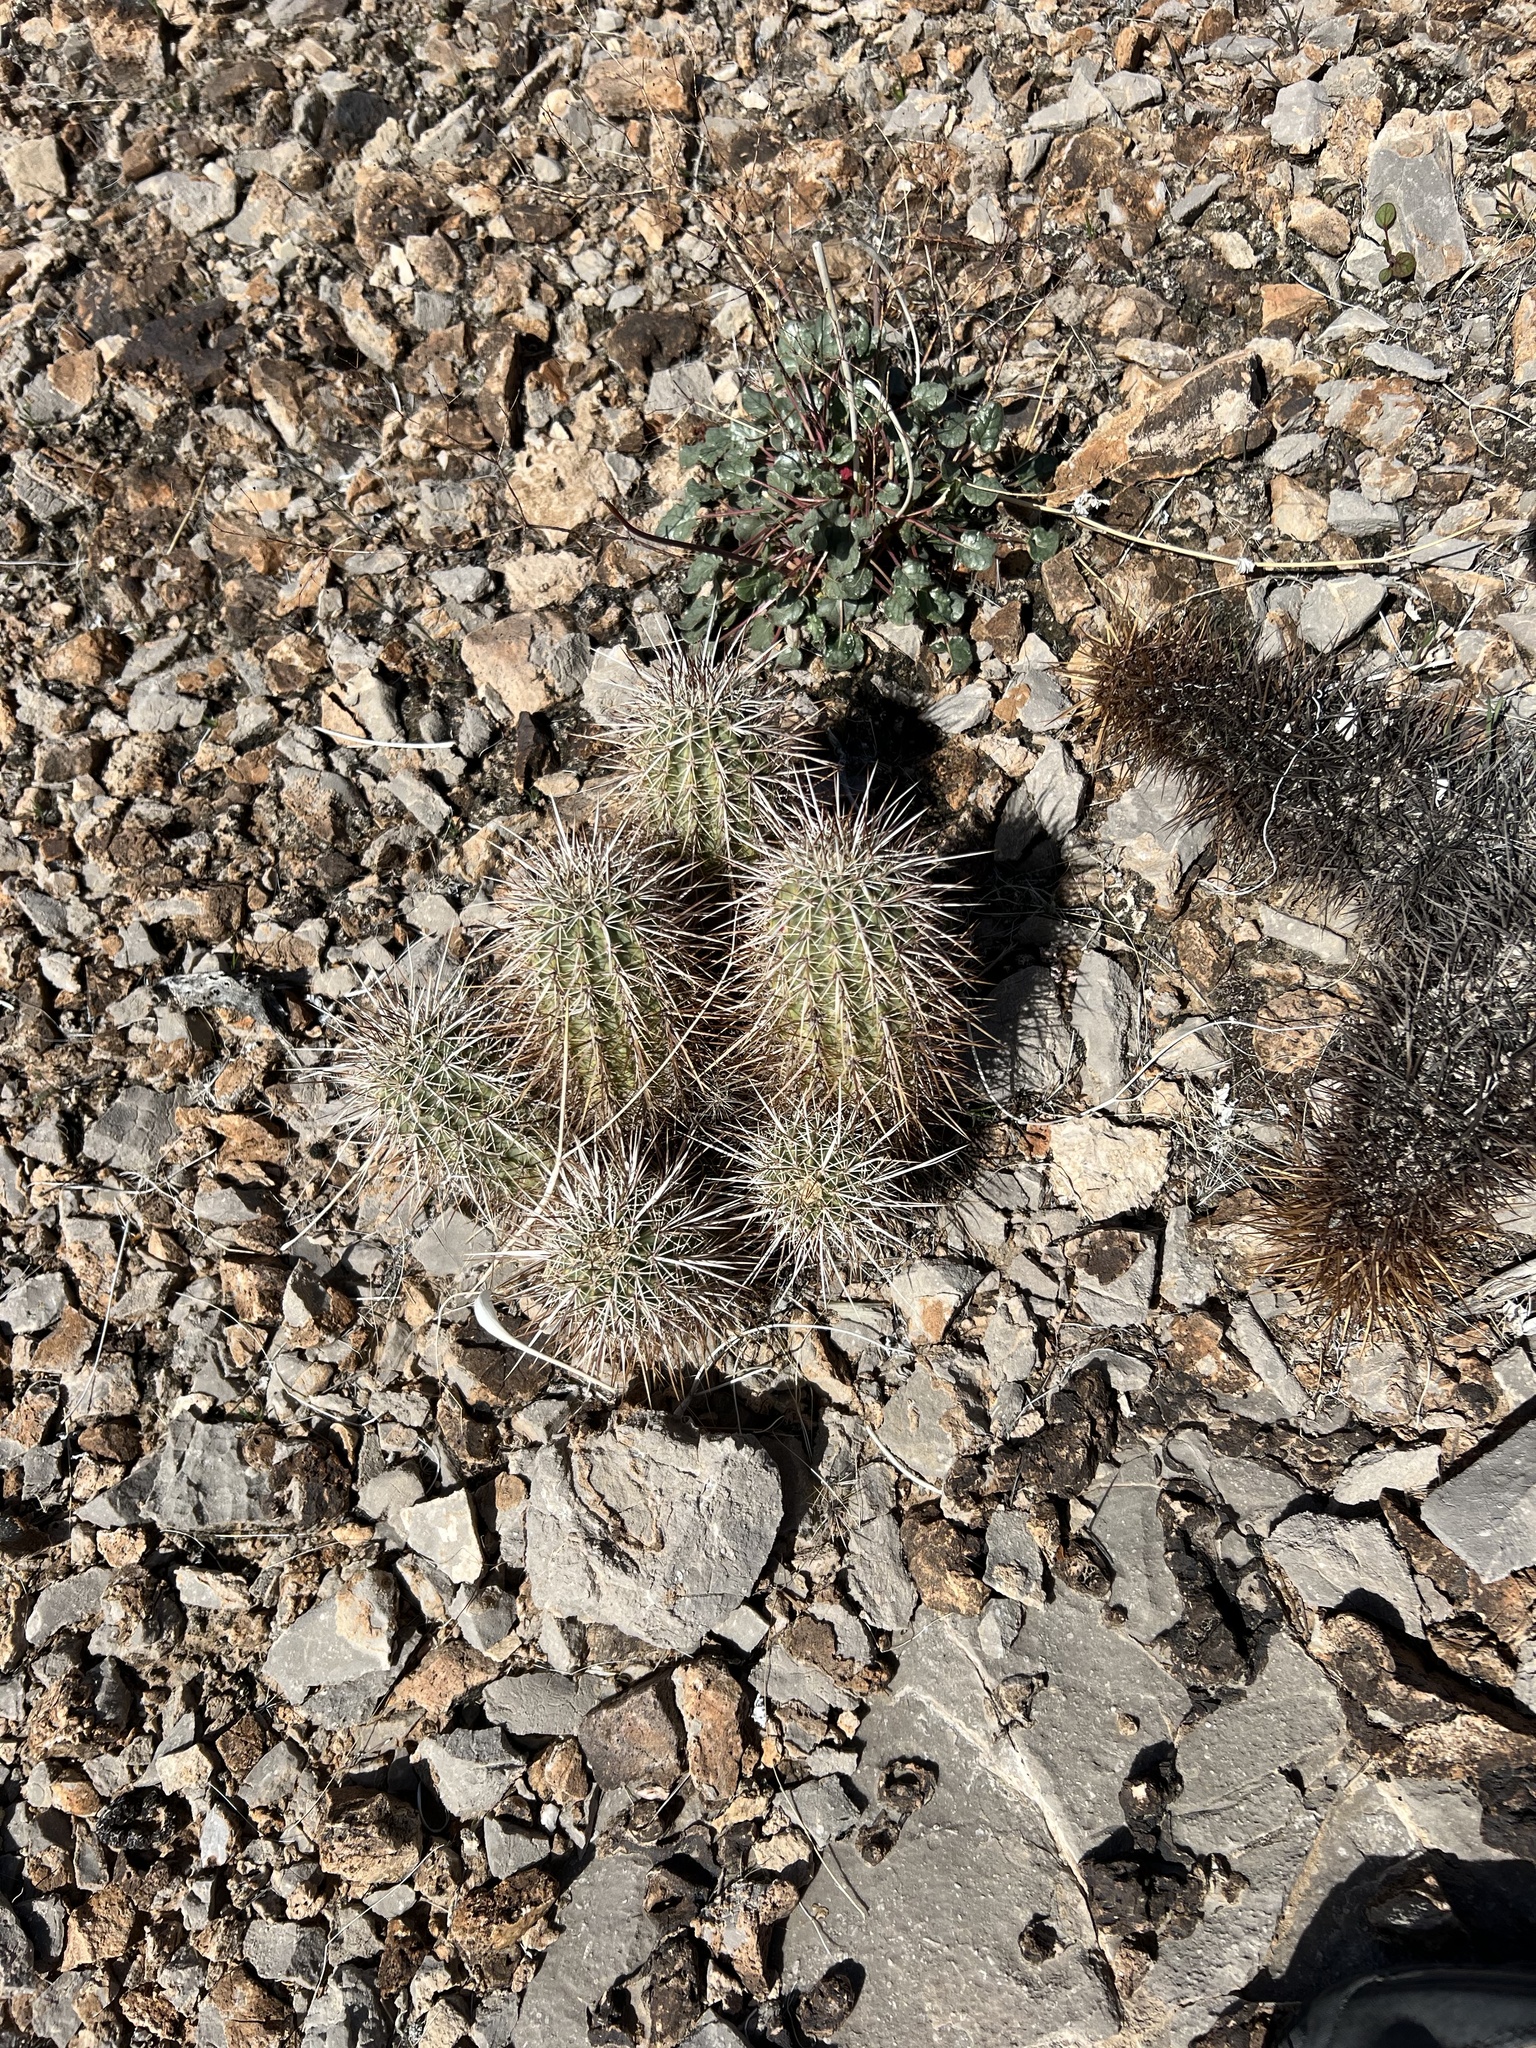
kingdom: Plantae
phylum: Tracheophyta
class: Magnoliopsida
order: Caryophyllales
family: Cactaceae
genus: Echinocereus
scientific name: Echinocereus engelmannii
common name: Engelmann's hedgehog cactus
